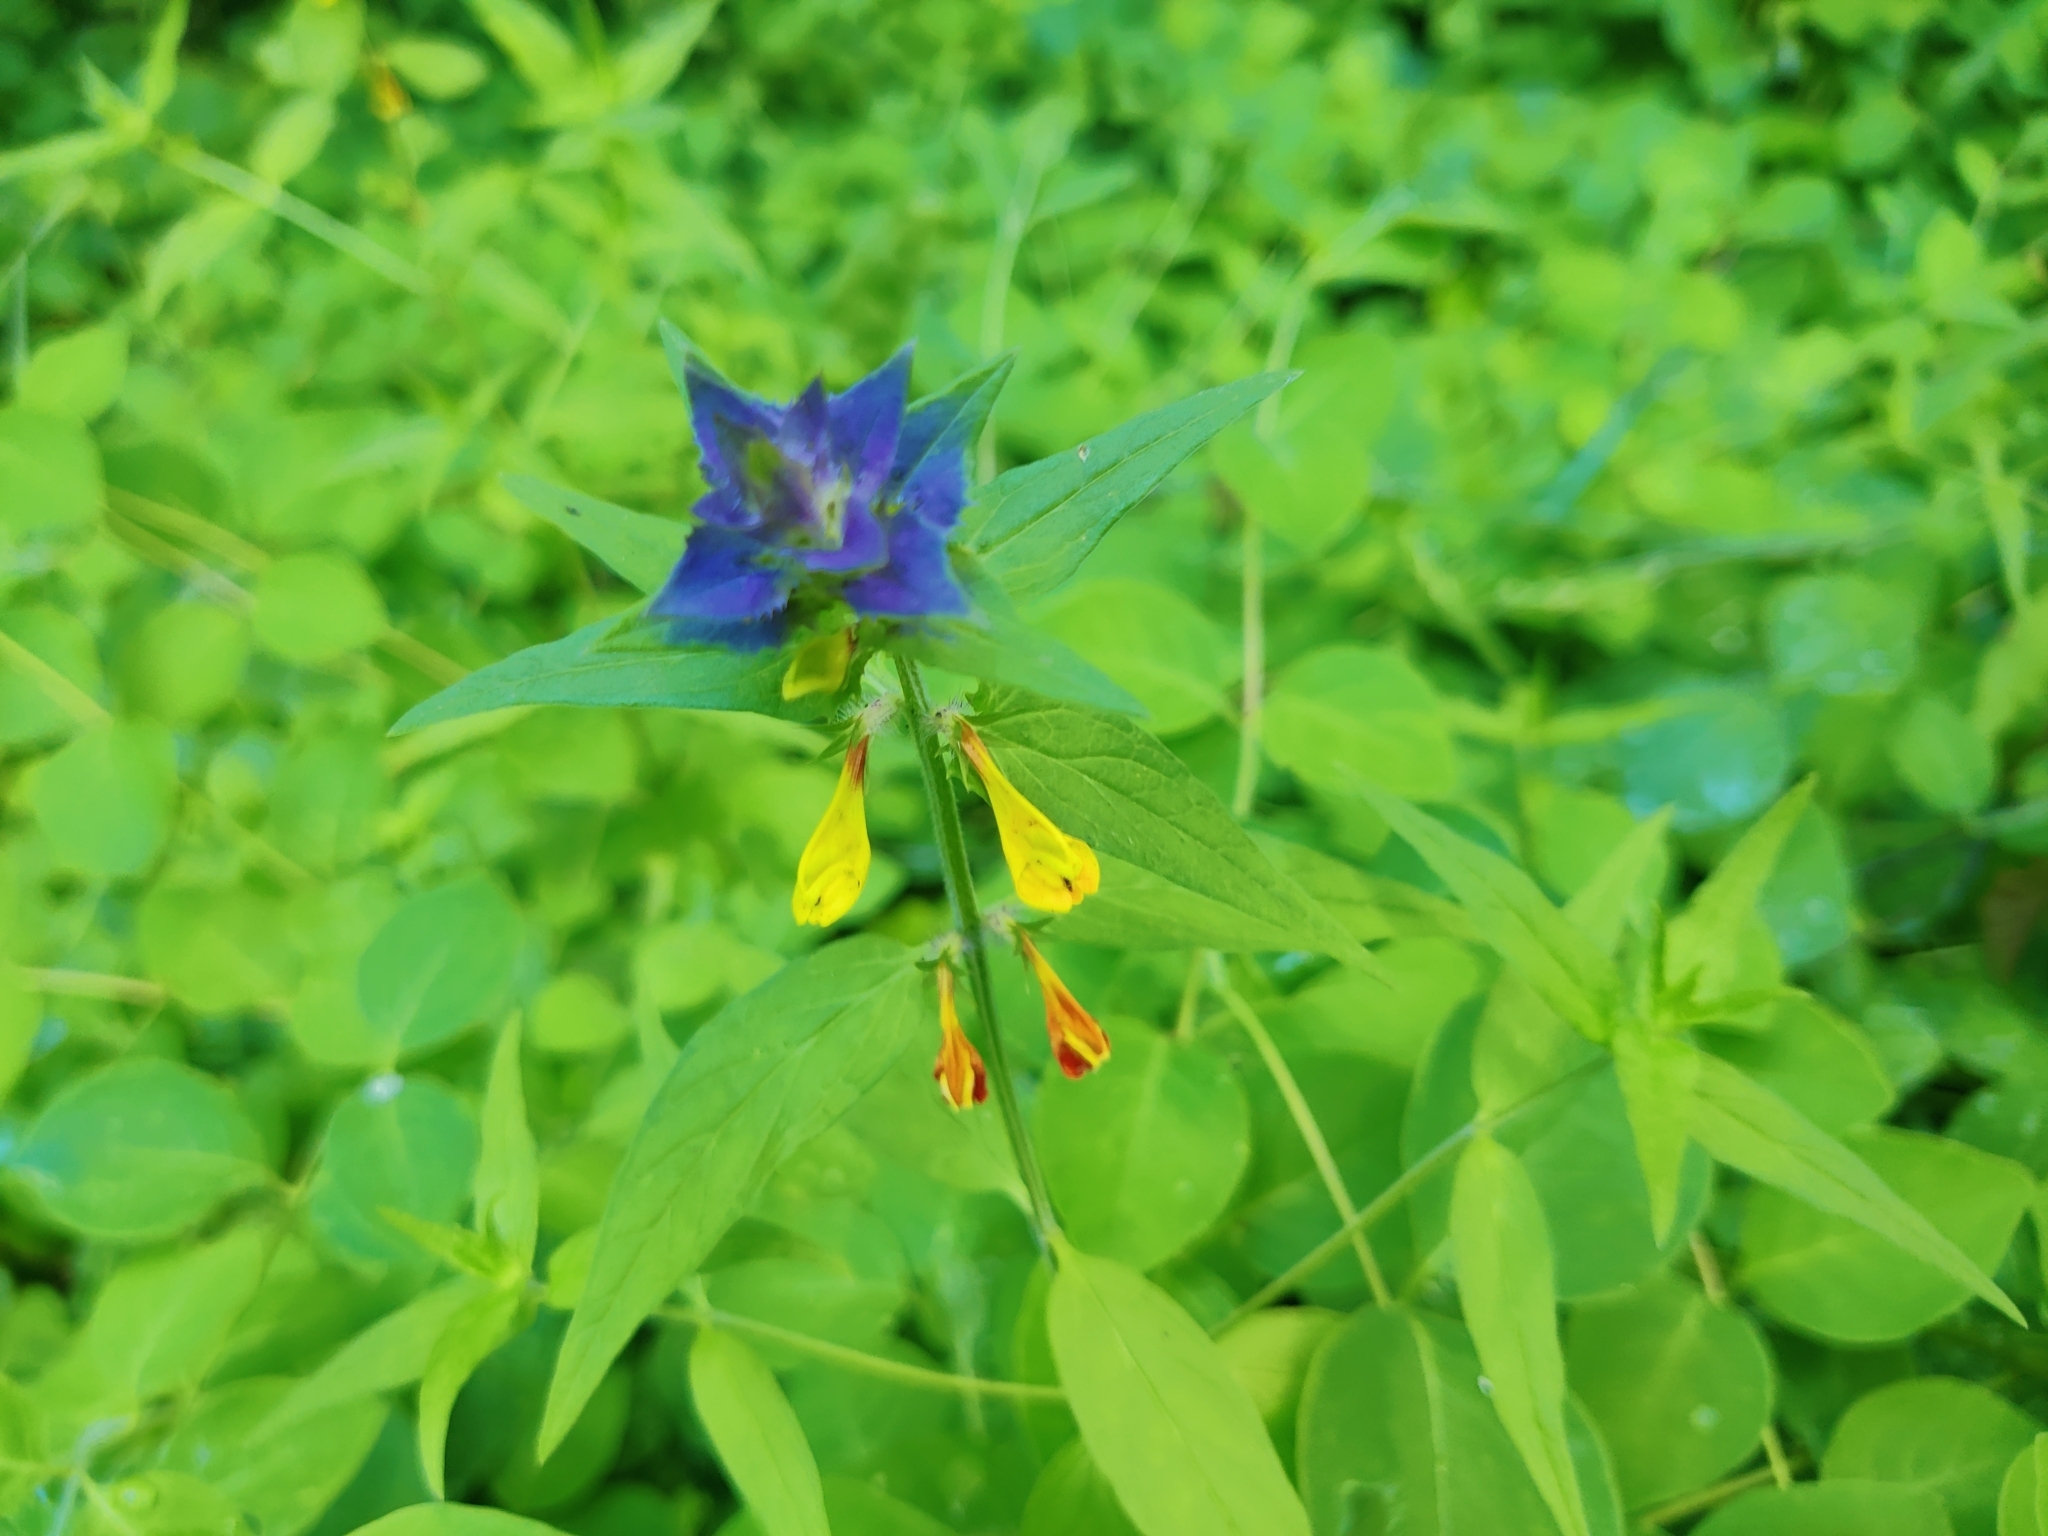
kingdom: Plantae
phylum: Tracheophyta
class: Magnoliopsida
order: Lamiales
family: Orobanchaceae
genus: Melampyrum
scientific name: Melampyrum nemorosum
